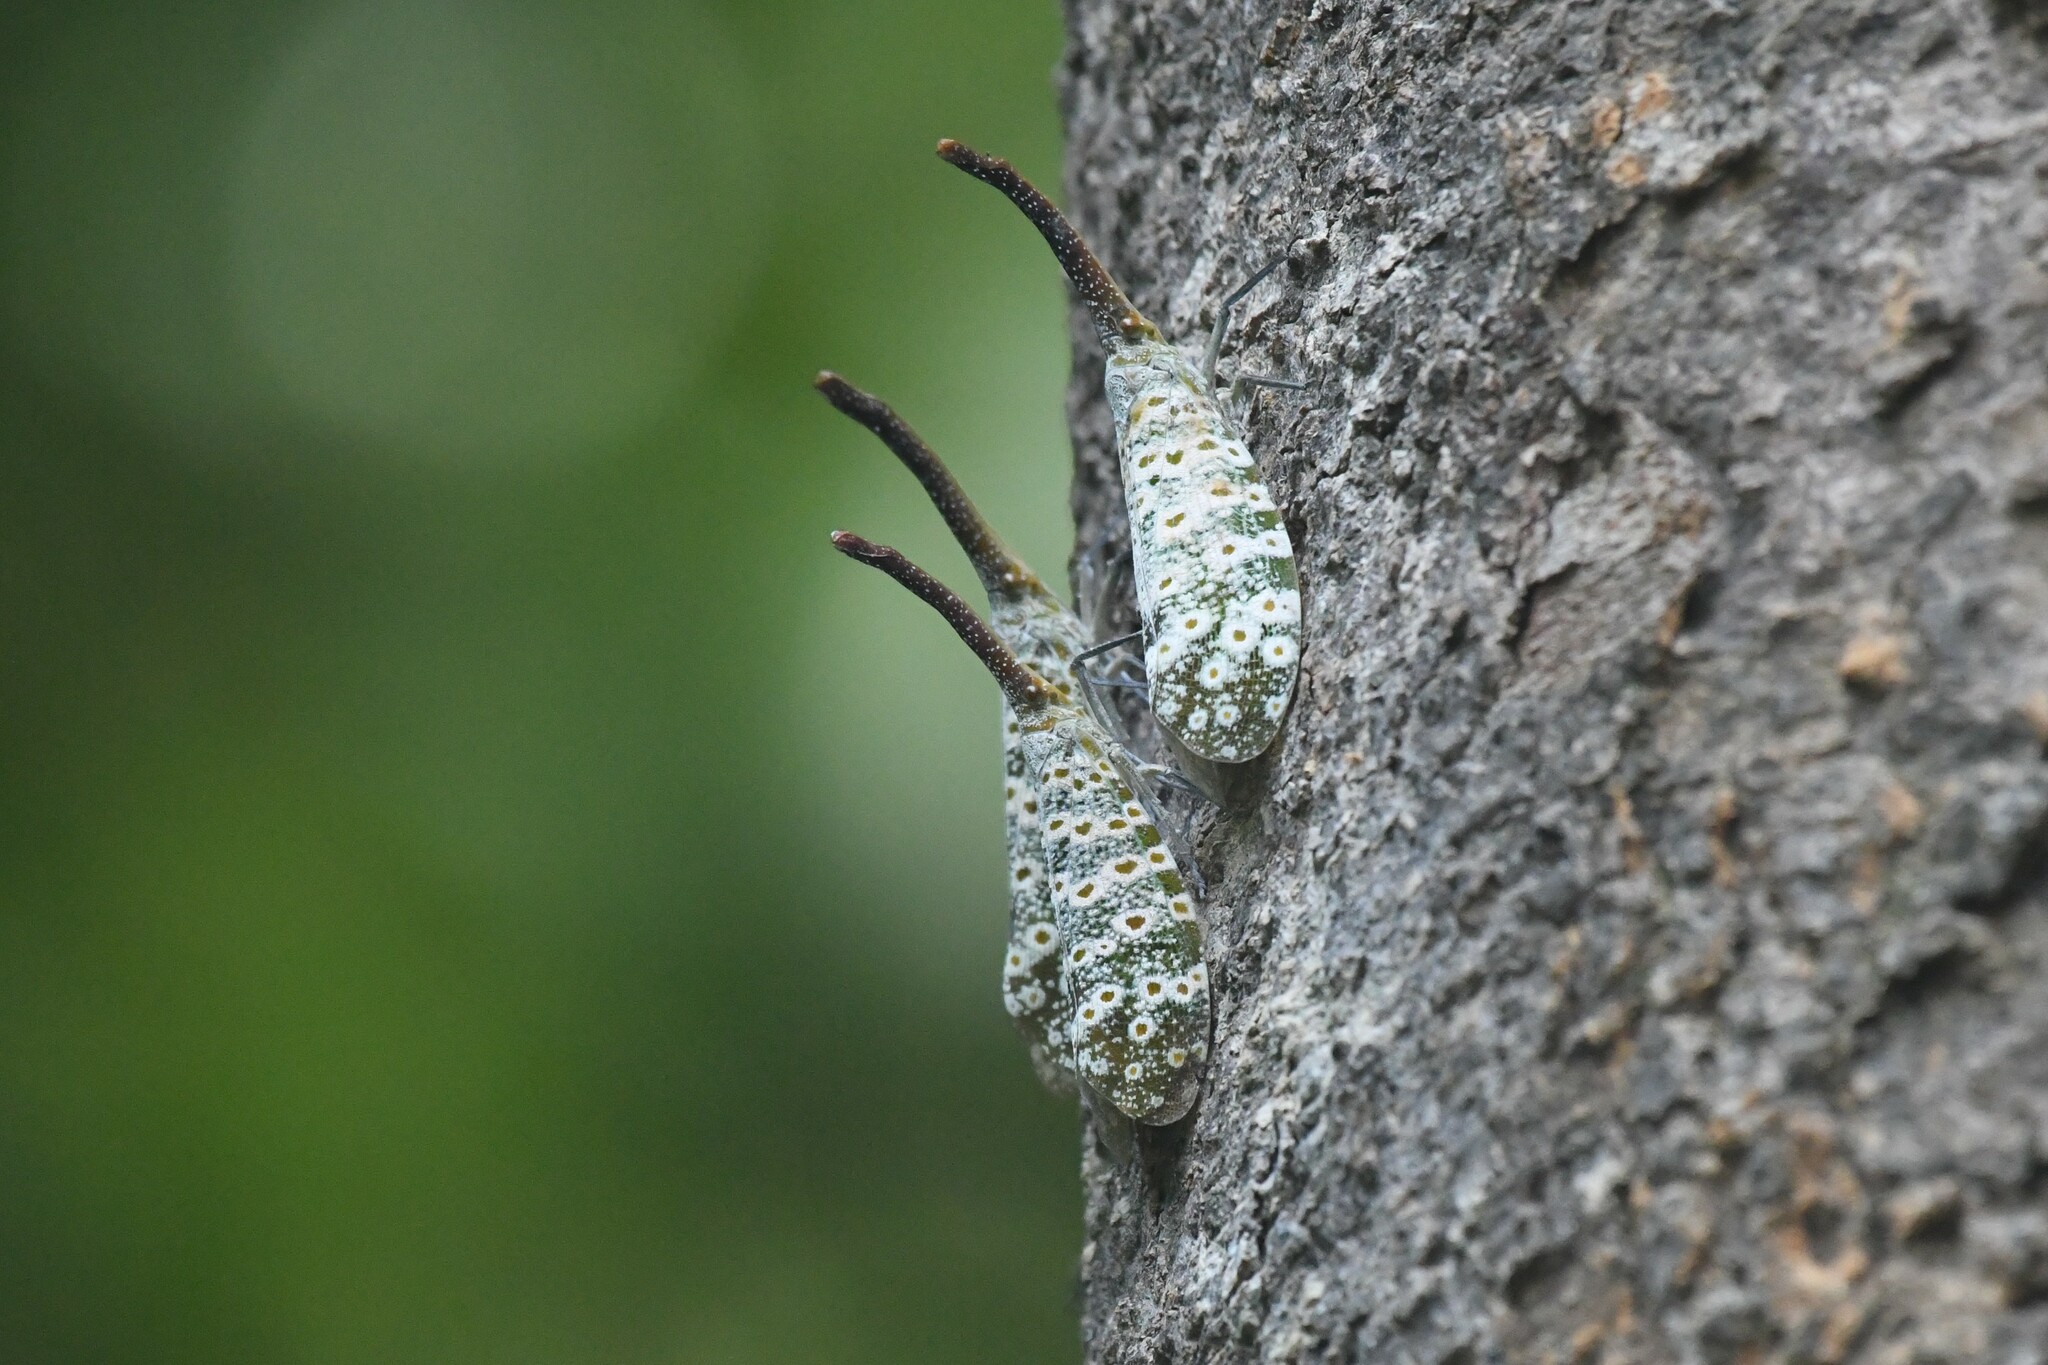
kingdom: Animalia
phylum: Arthropoda
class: Insecta
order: Hemiptera
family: Fulgoridae
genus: Pyrops
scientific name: Pyrops oculatus
